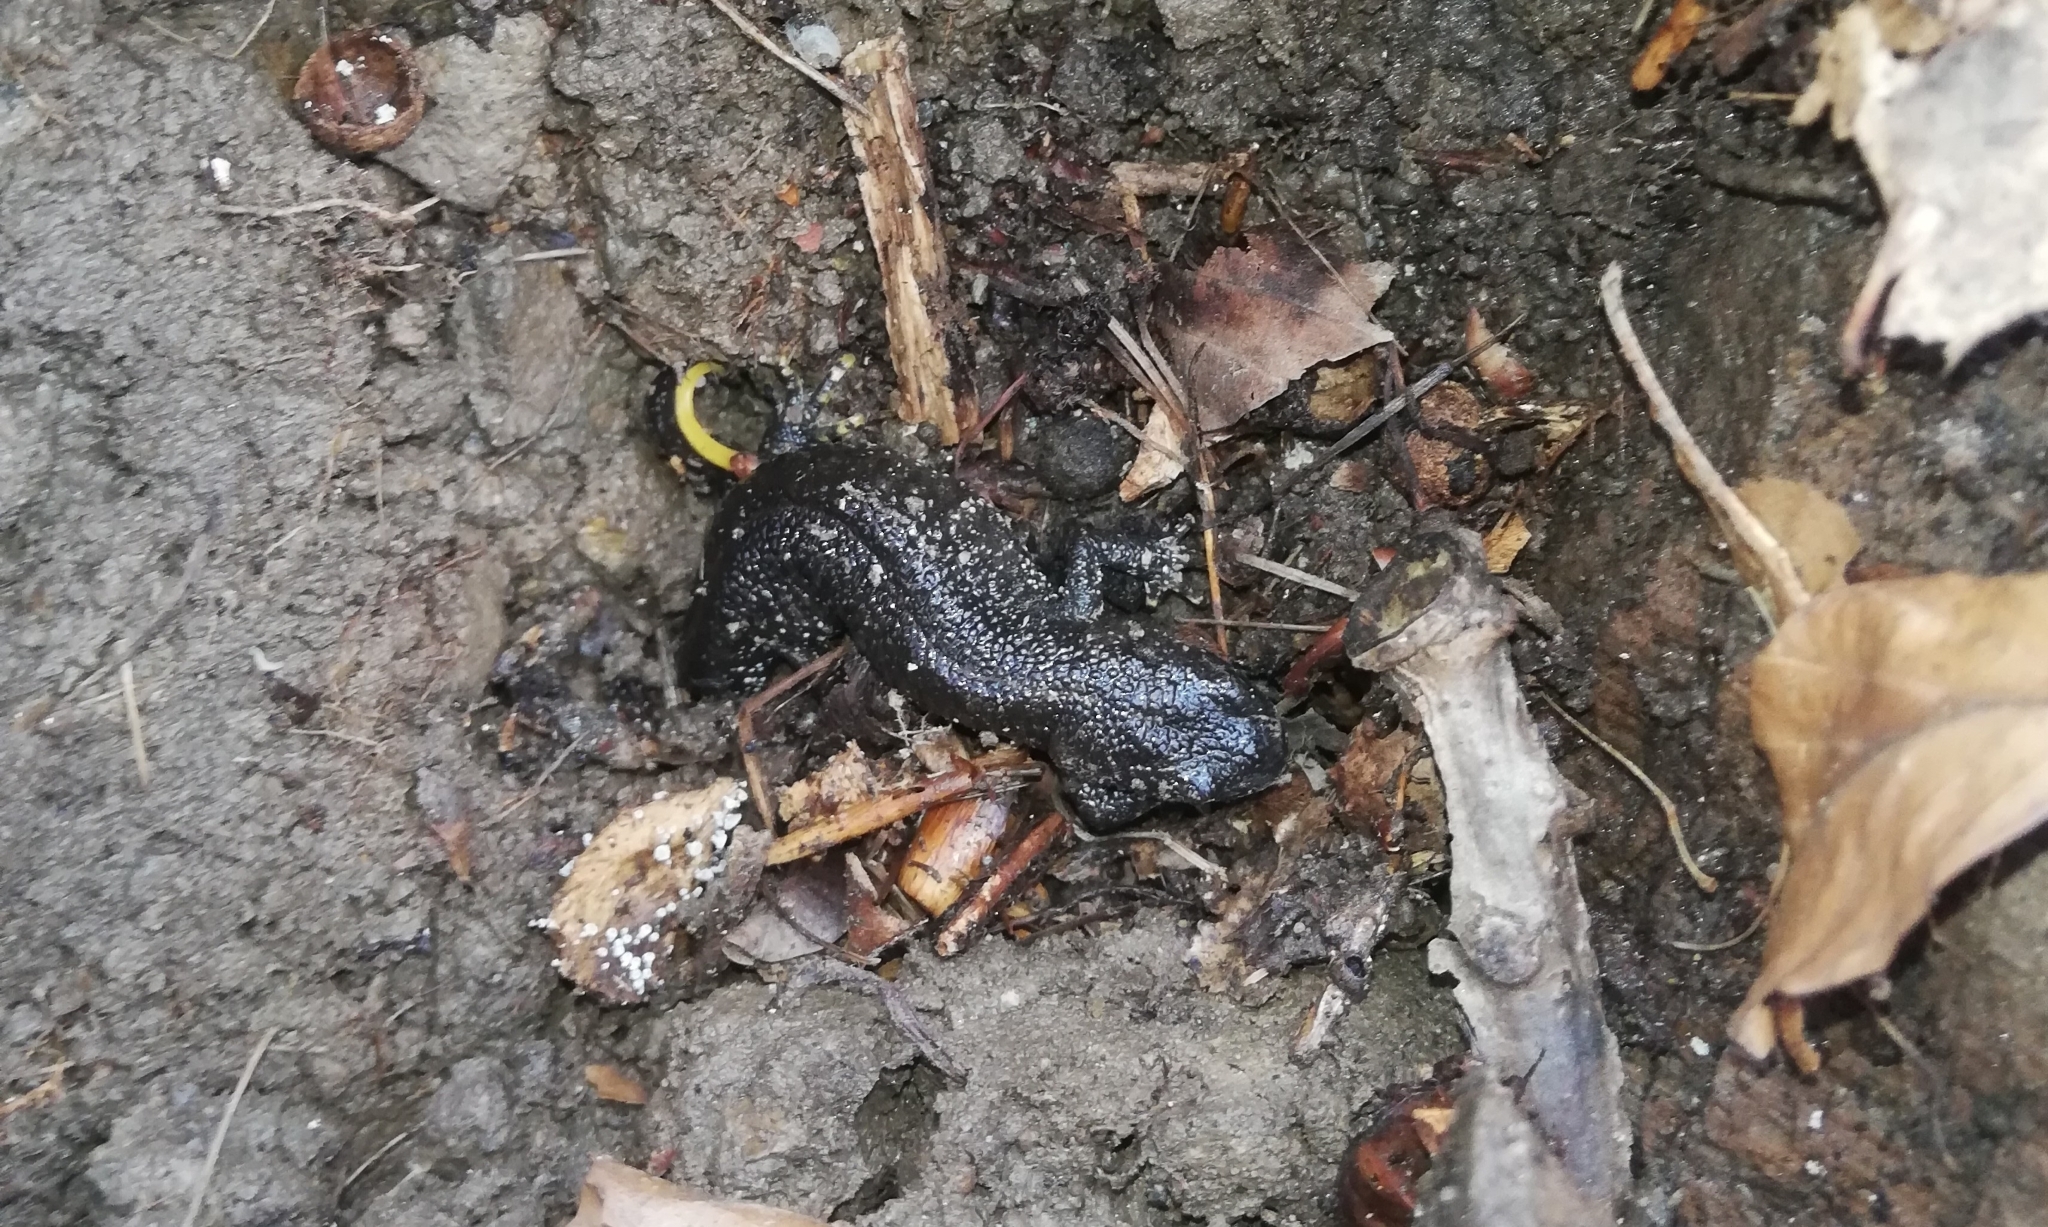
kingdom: Animalia
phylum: Chordata
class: Amphibia
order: Caudata
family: Salamandridae
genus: Triturus
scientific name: Triturus cristatus
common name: Crested newt
